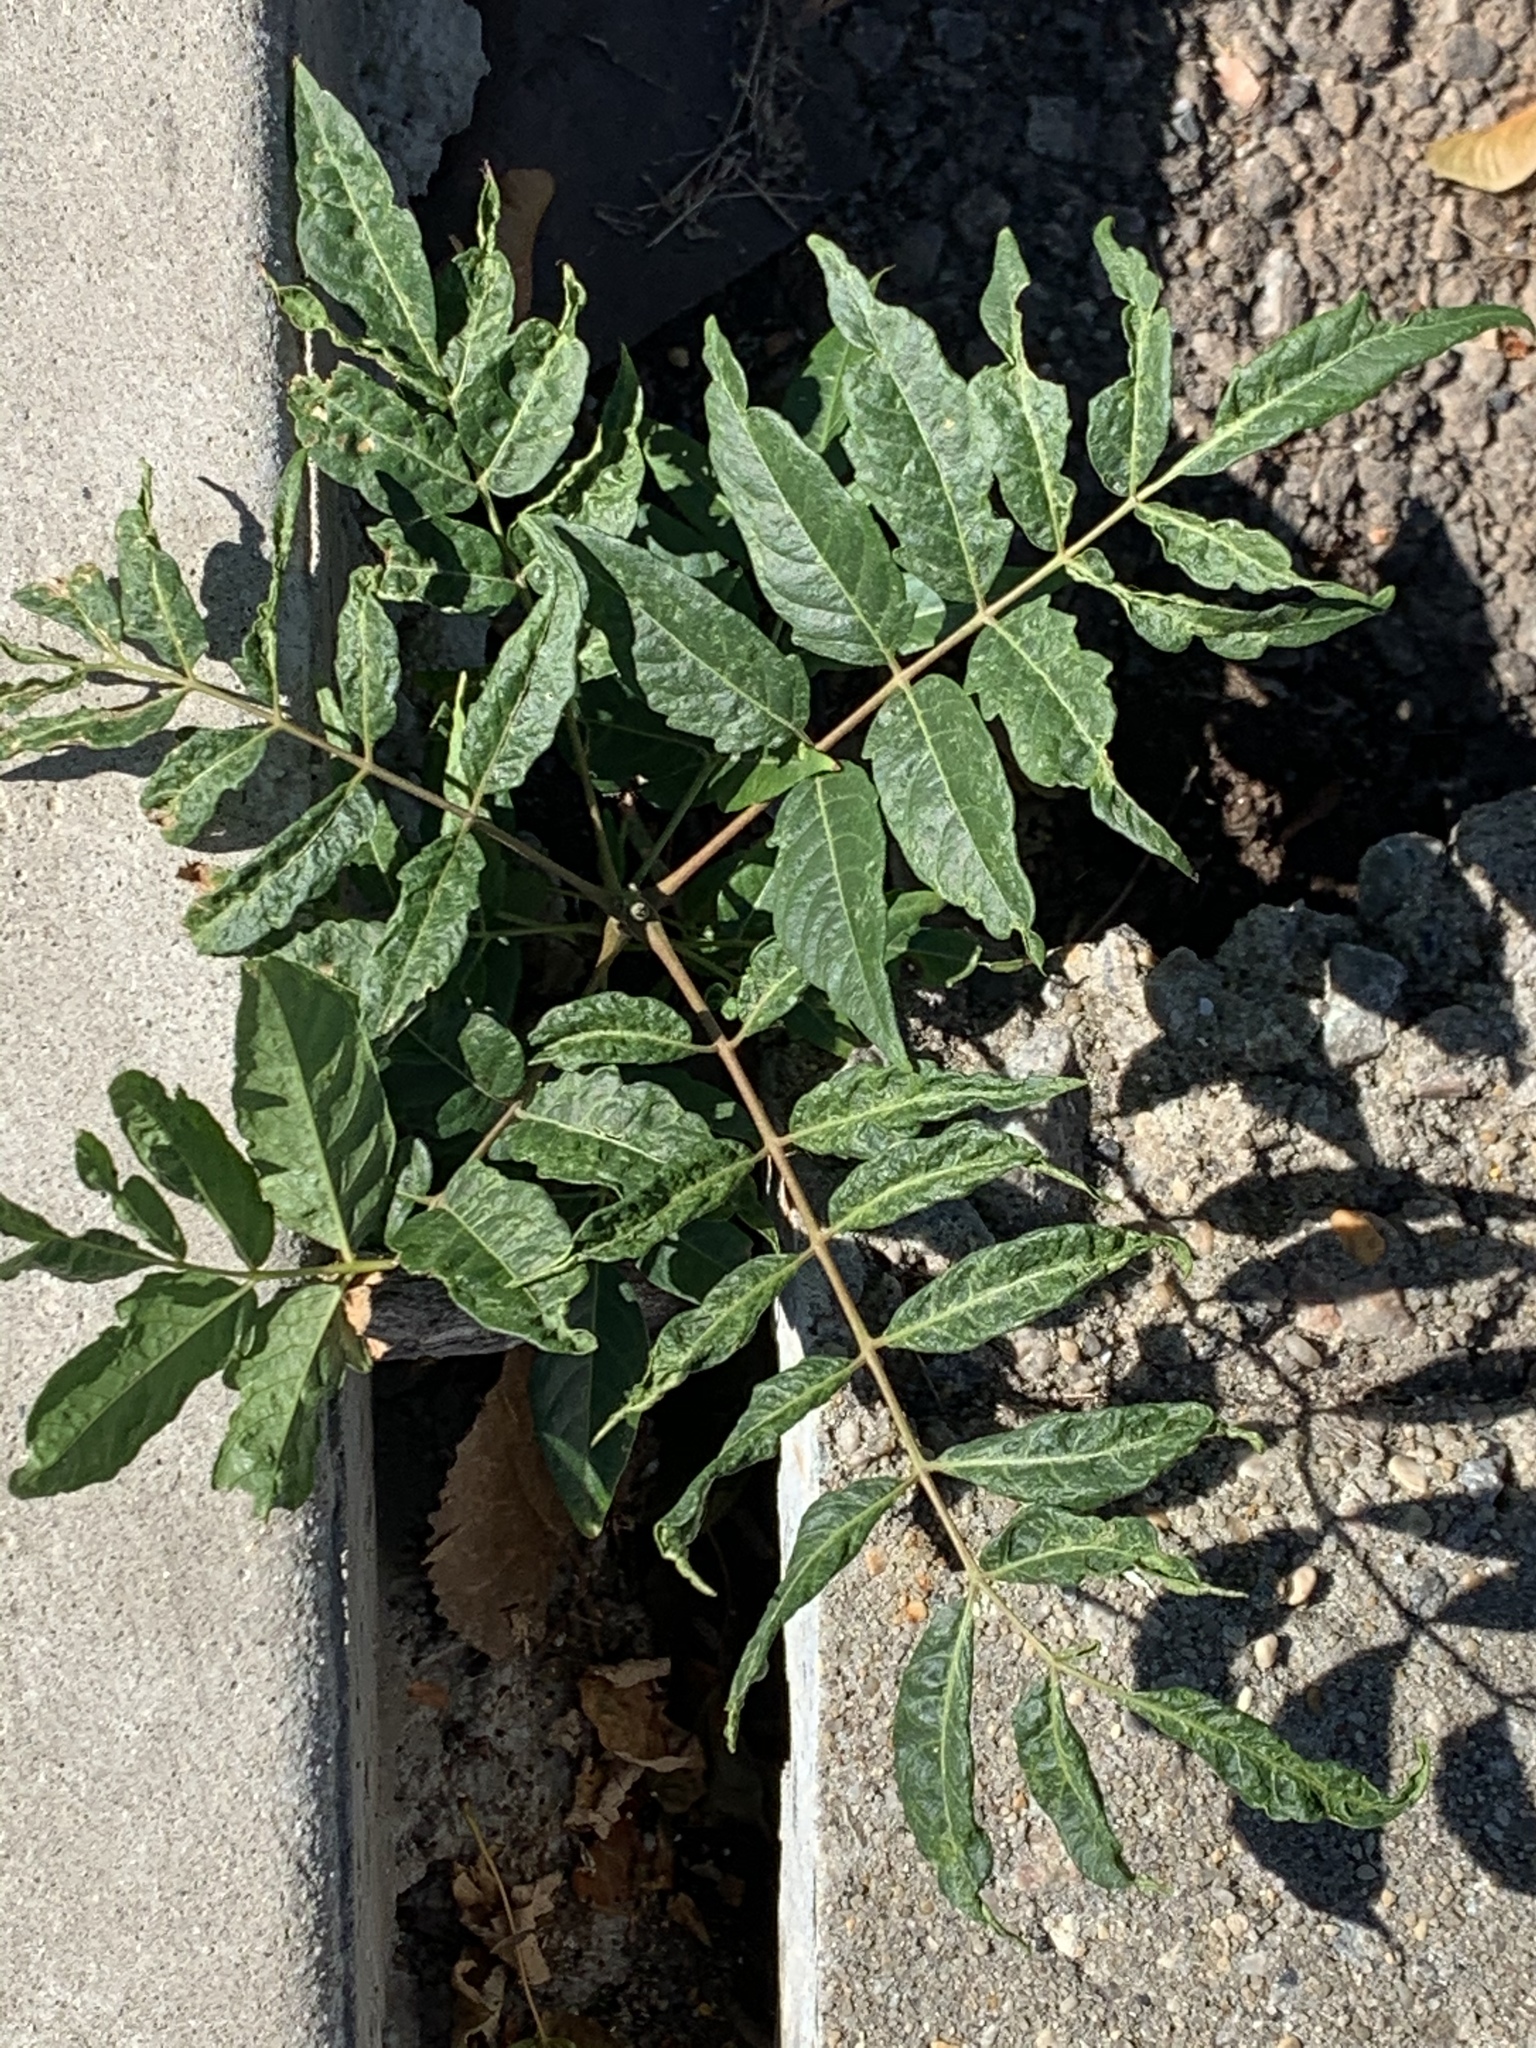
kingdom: Plantae
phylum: Tracheophyta
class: Magnoliopsida
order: Sapindales
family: Simaroubaceae
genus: Ailanthus
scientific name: Ailanthus altissima
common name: Tree-of-heaven
